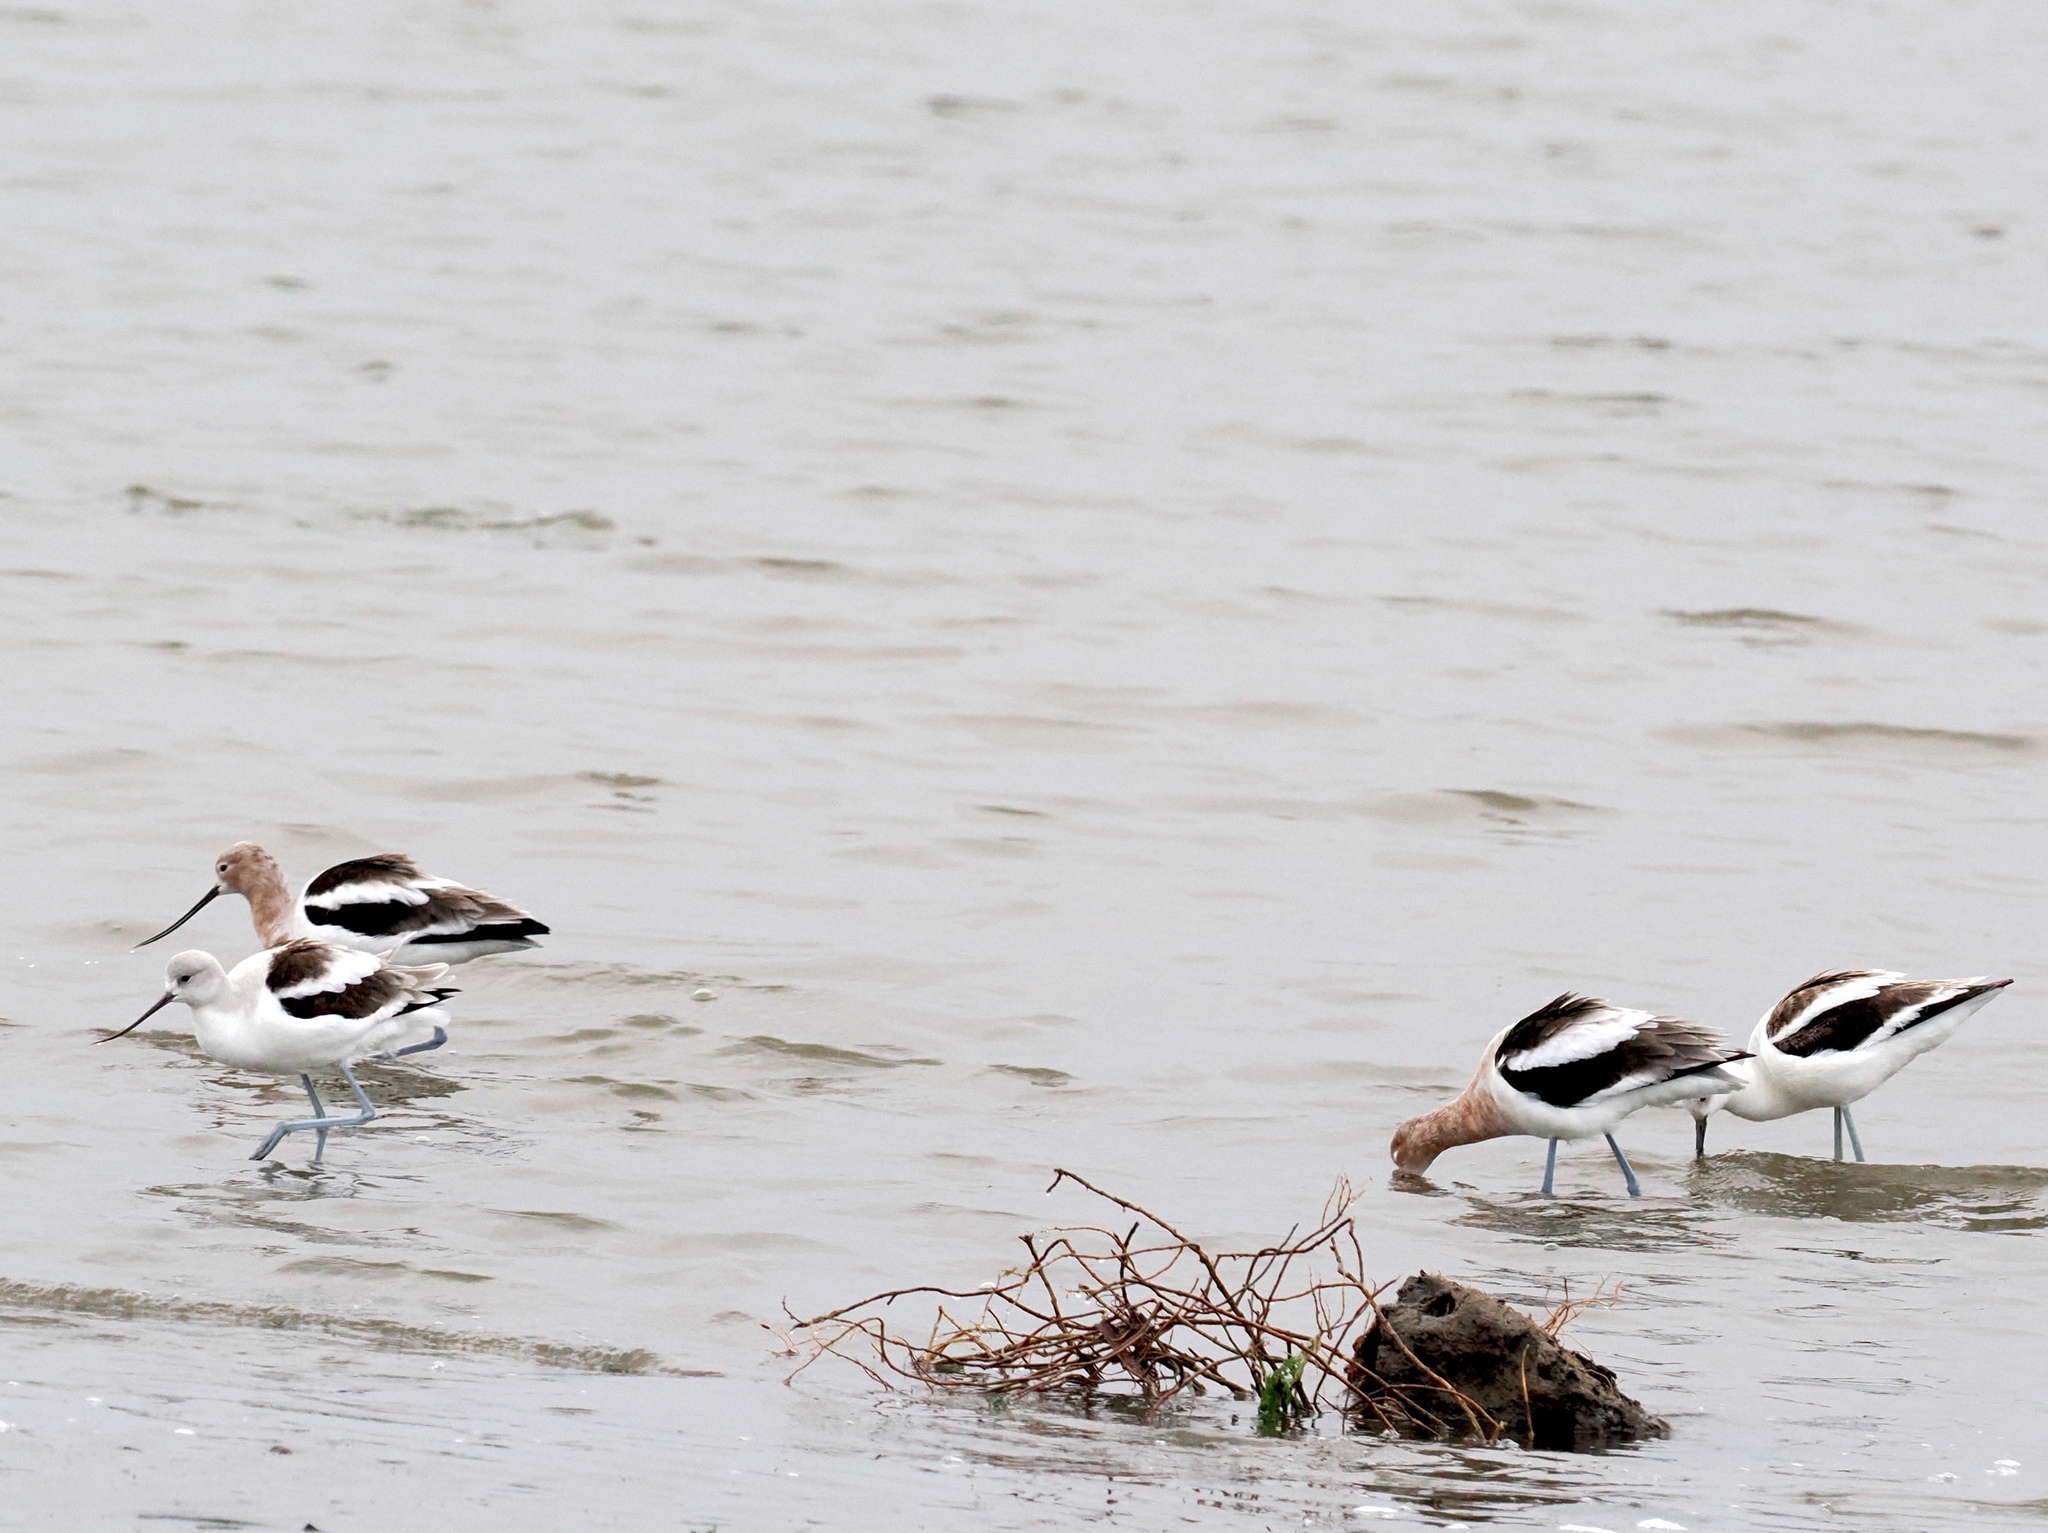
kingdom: Animalia
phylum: Chordata
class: Aves
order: Charadriiformes
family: Recurvirostridae
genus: Recurvirostra
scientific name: Recurvirostra americana
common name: American avocet
